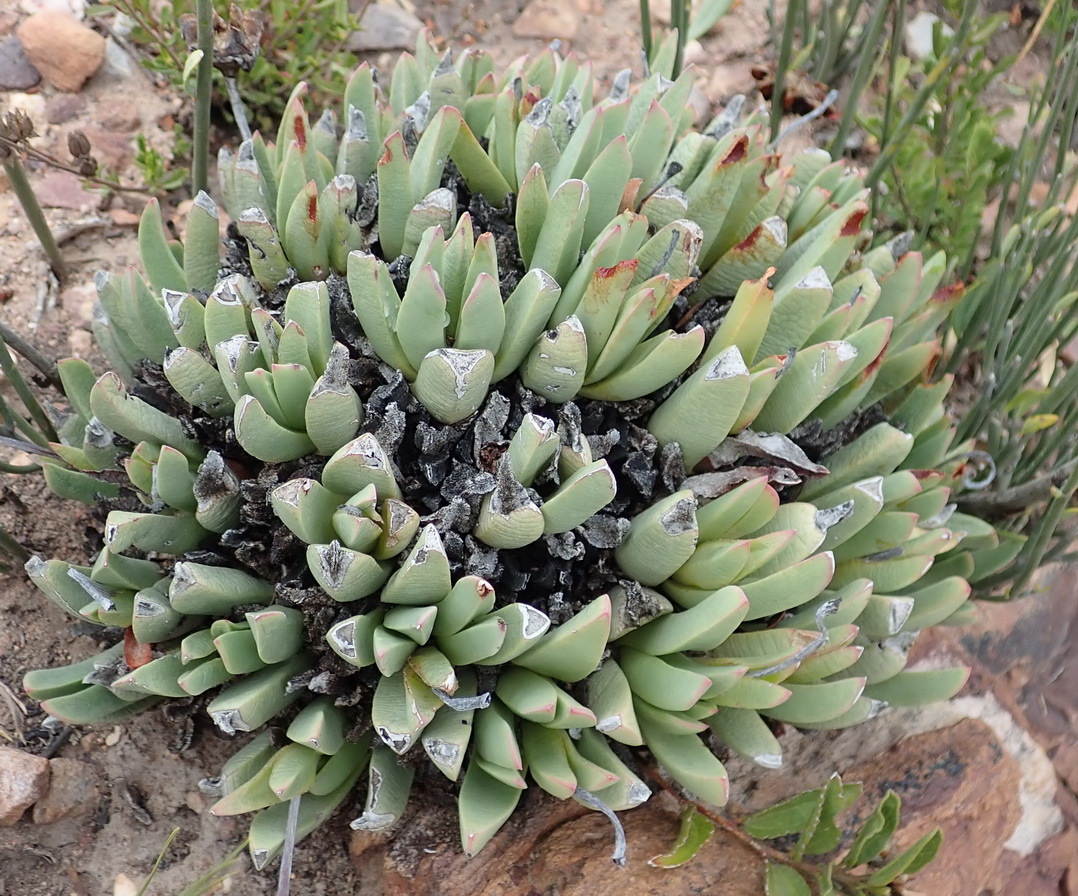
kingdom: Plantae
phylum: Tracheophyta
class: Magnoliopsida
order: Caryophyllales
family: Aizoaceae
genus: Machairophyllum
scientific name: Machairophyllum albidum
